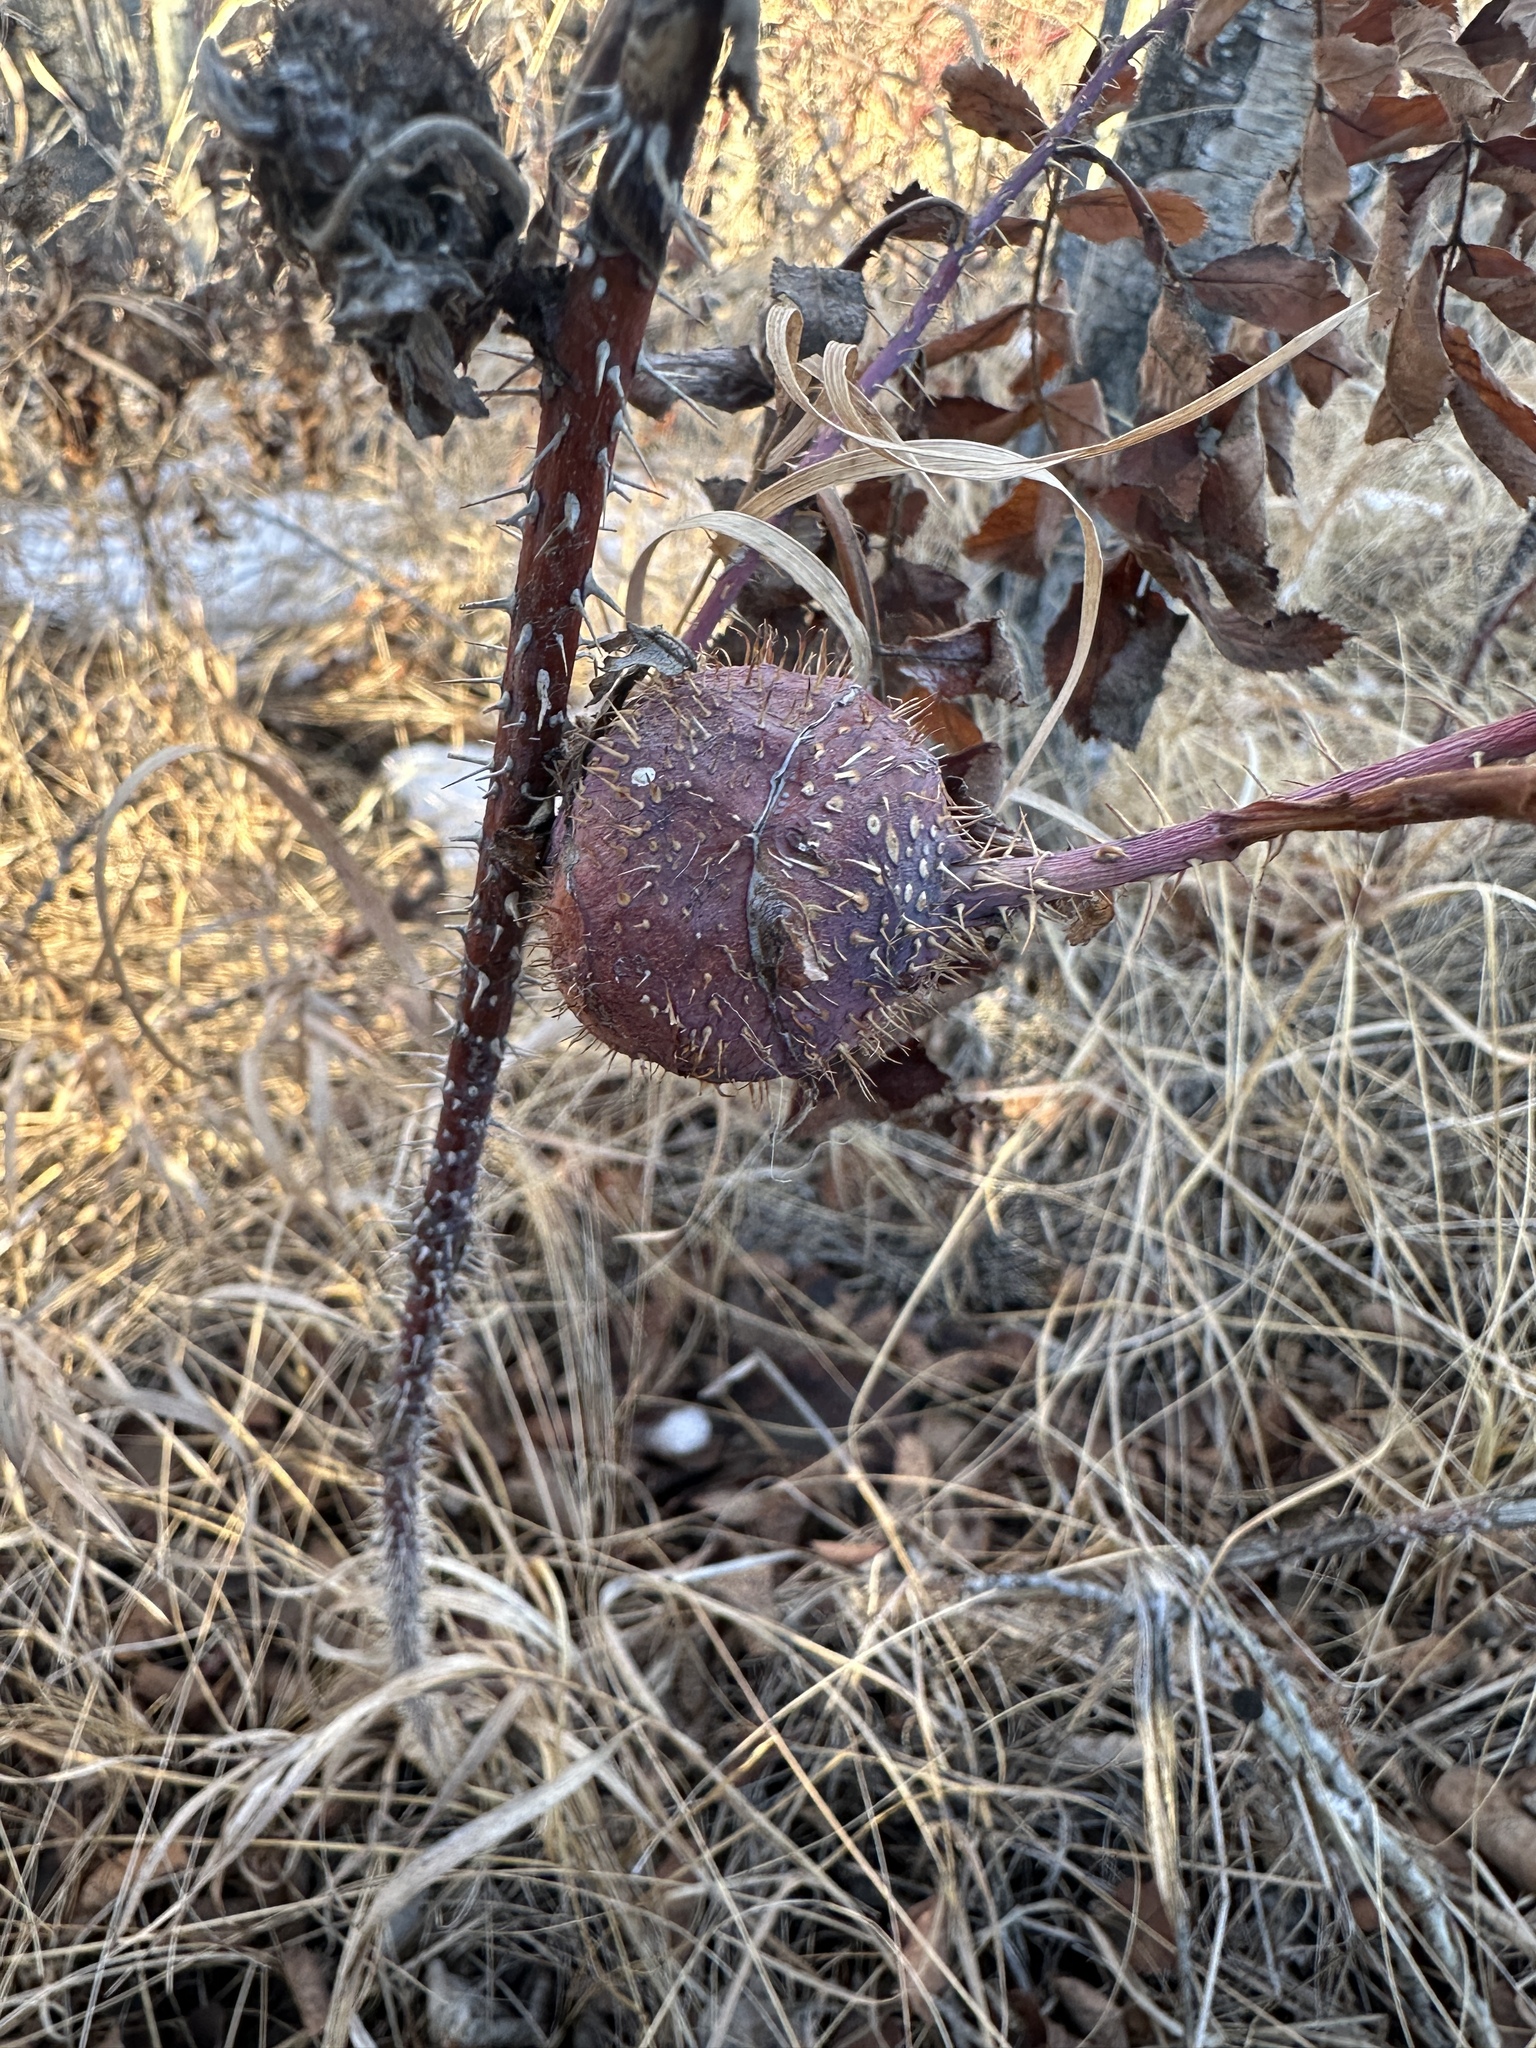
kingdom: Animalia
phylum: Arthropoda
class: Insecta
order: Hymenoptera
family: Cynipidae
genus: Diplolepis
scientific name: Diplolepis spinosa
